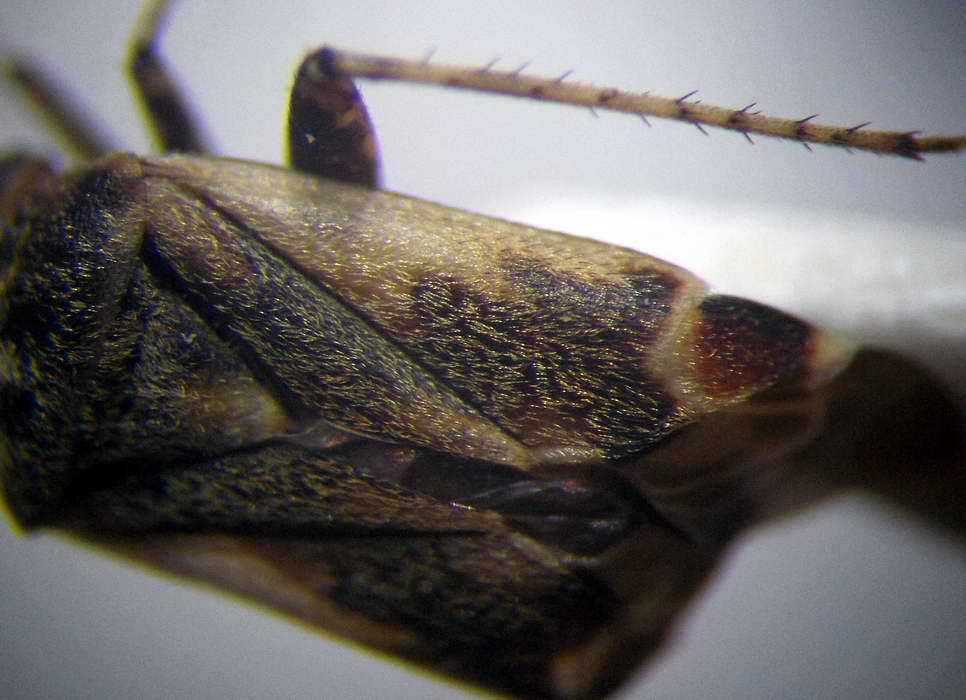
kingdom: Animalia
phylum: Arthropoda
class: Insecta
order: Hemiptera
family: Miridae
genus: Polymerus
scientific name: Polymerus cognatus
